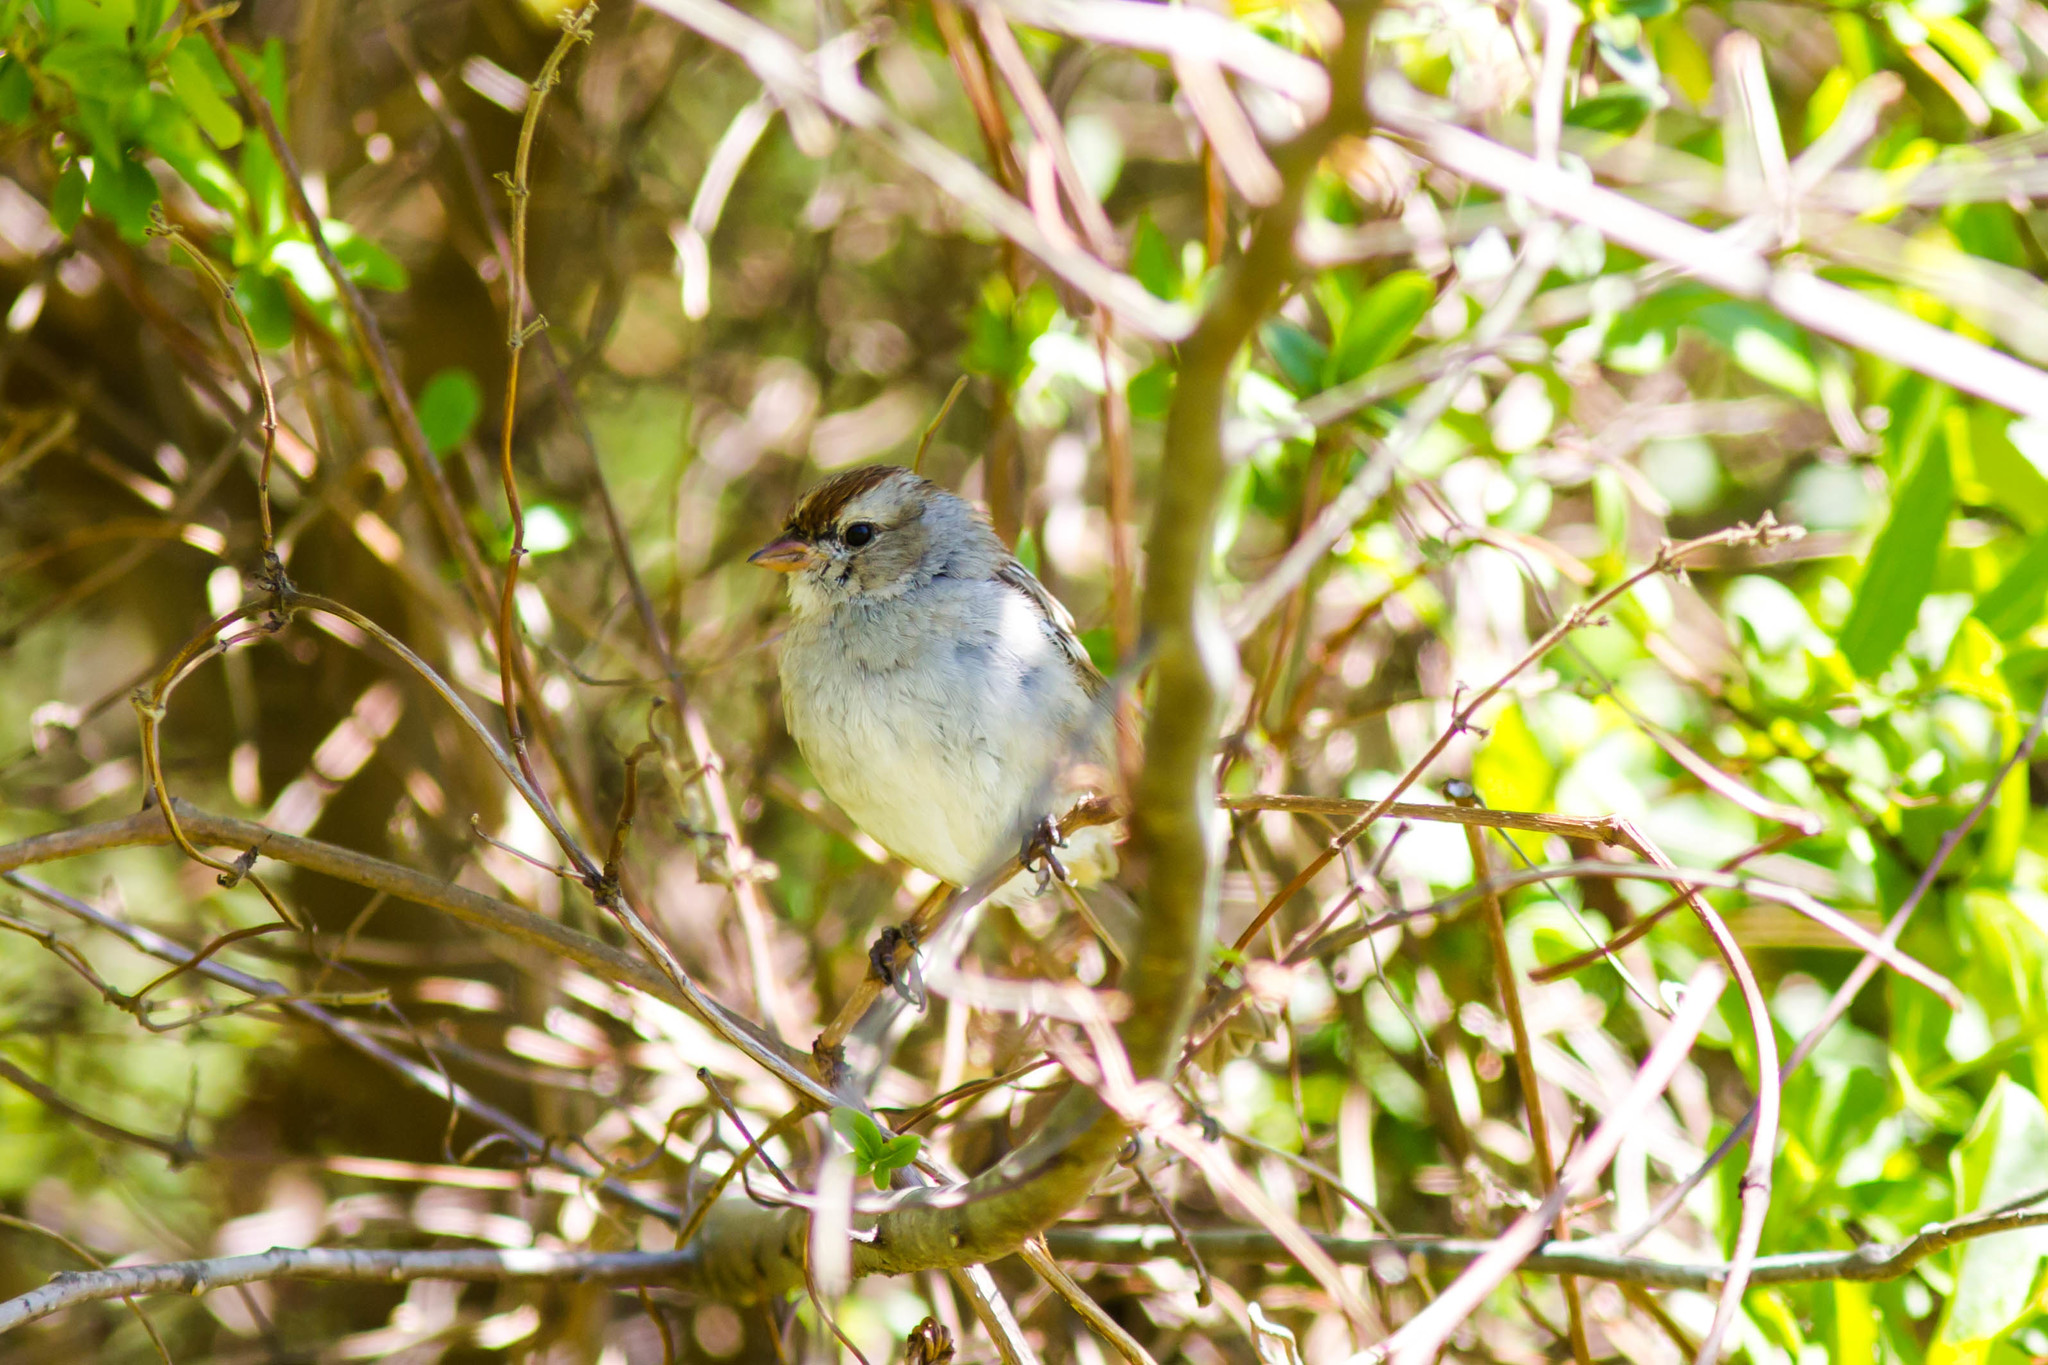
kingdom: Animalia
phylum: Chordata
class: Aves
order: Passeriformes
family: Passerellidae
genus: Zonotrichia
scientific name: Zonotrichia leucophrys
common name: White-crowned sparrow
